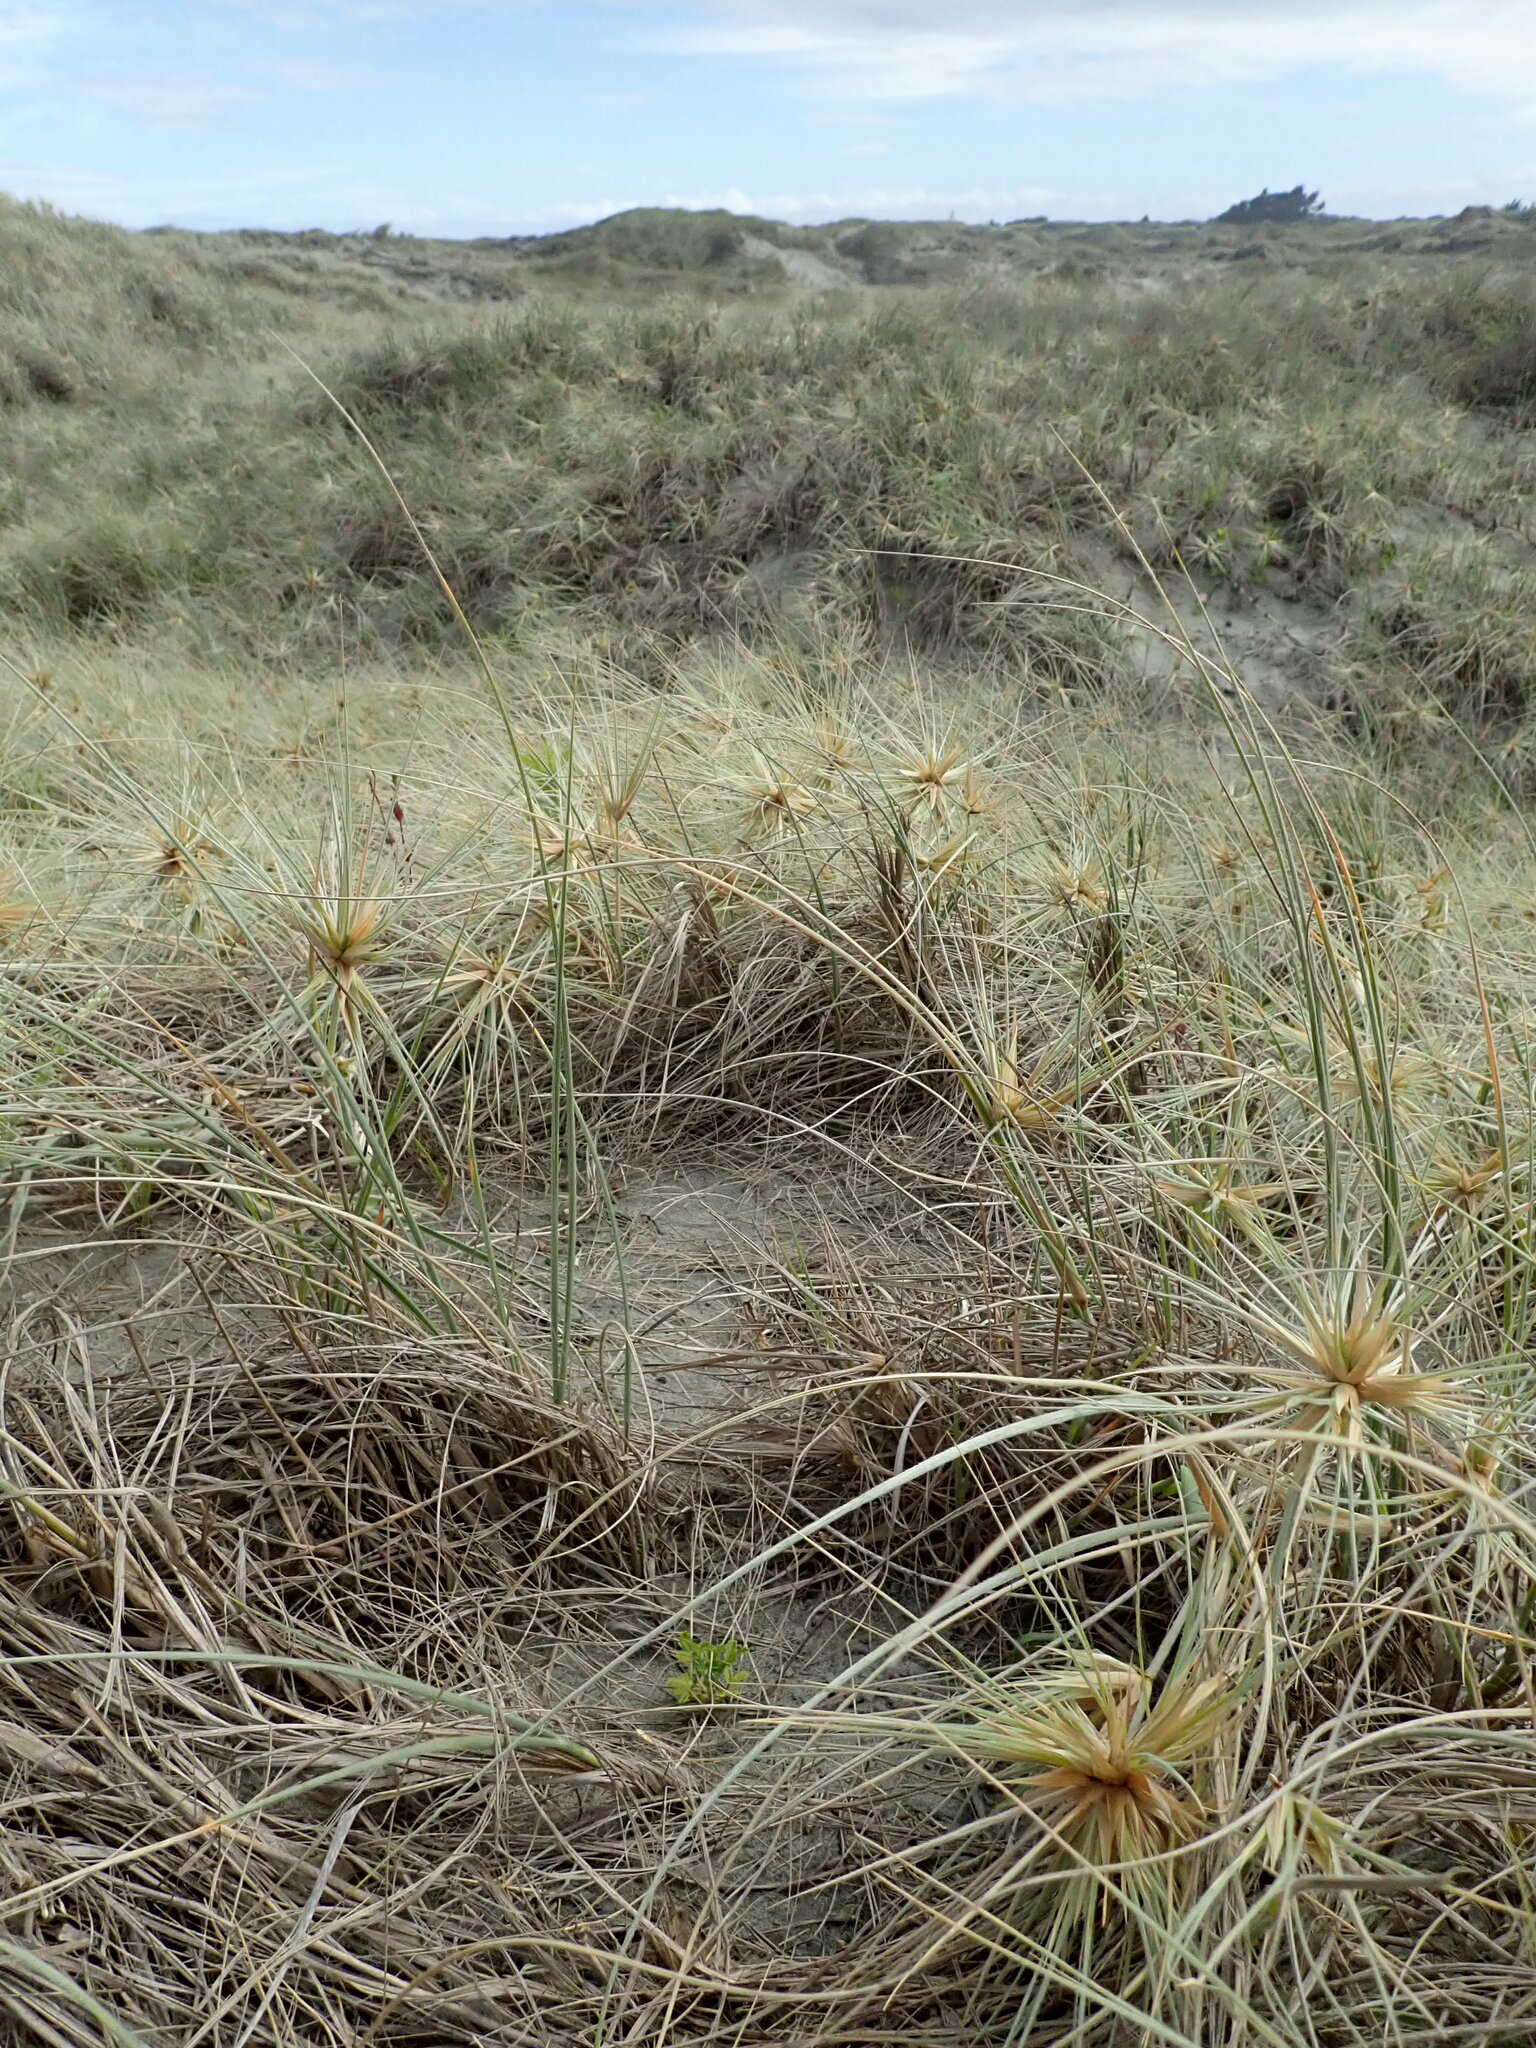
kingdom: Plantae
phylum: Tracheophyta
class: Magnoliopsida
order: Rosales
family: Rosaceae
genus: Acaena
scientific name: Acaena novae-zelandiae
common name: Pirri-pirri-bur
